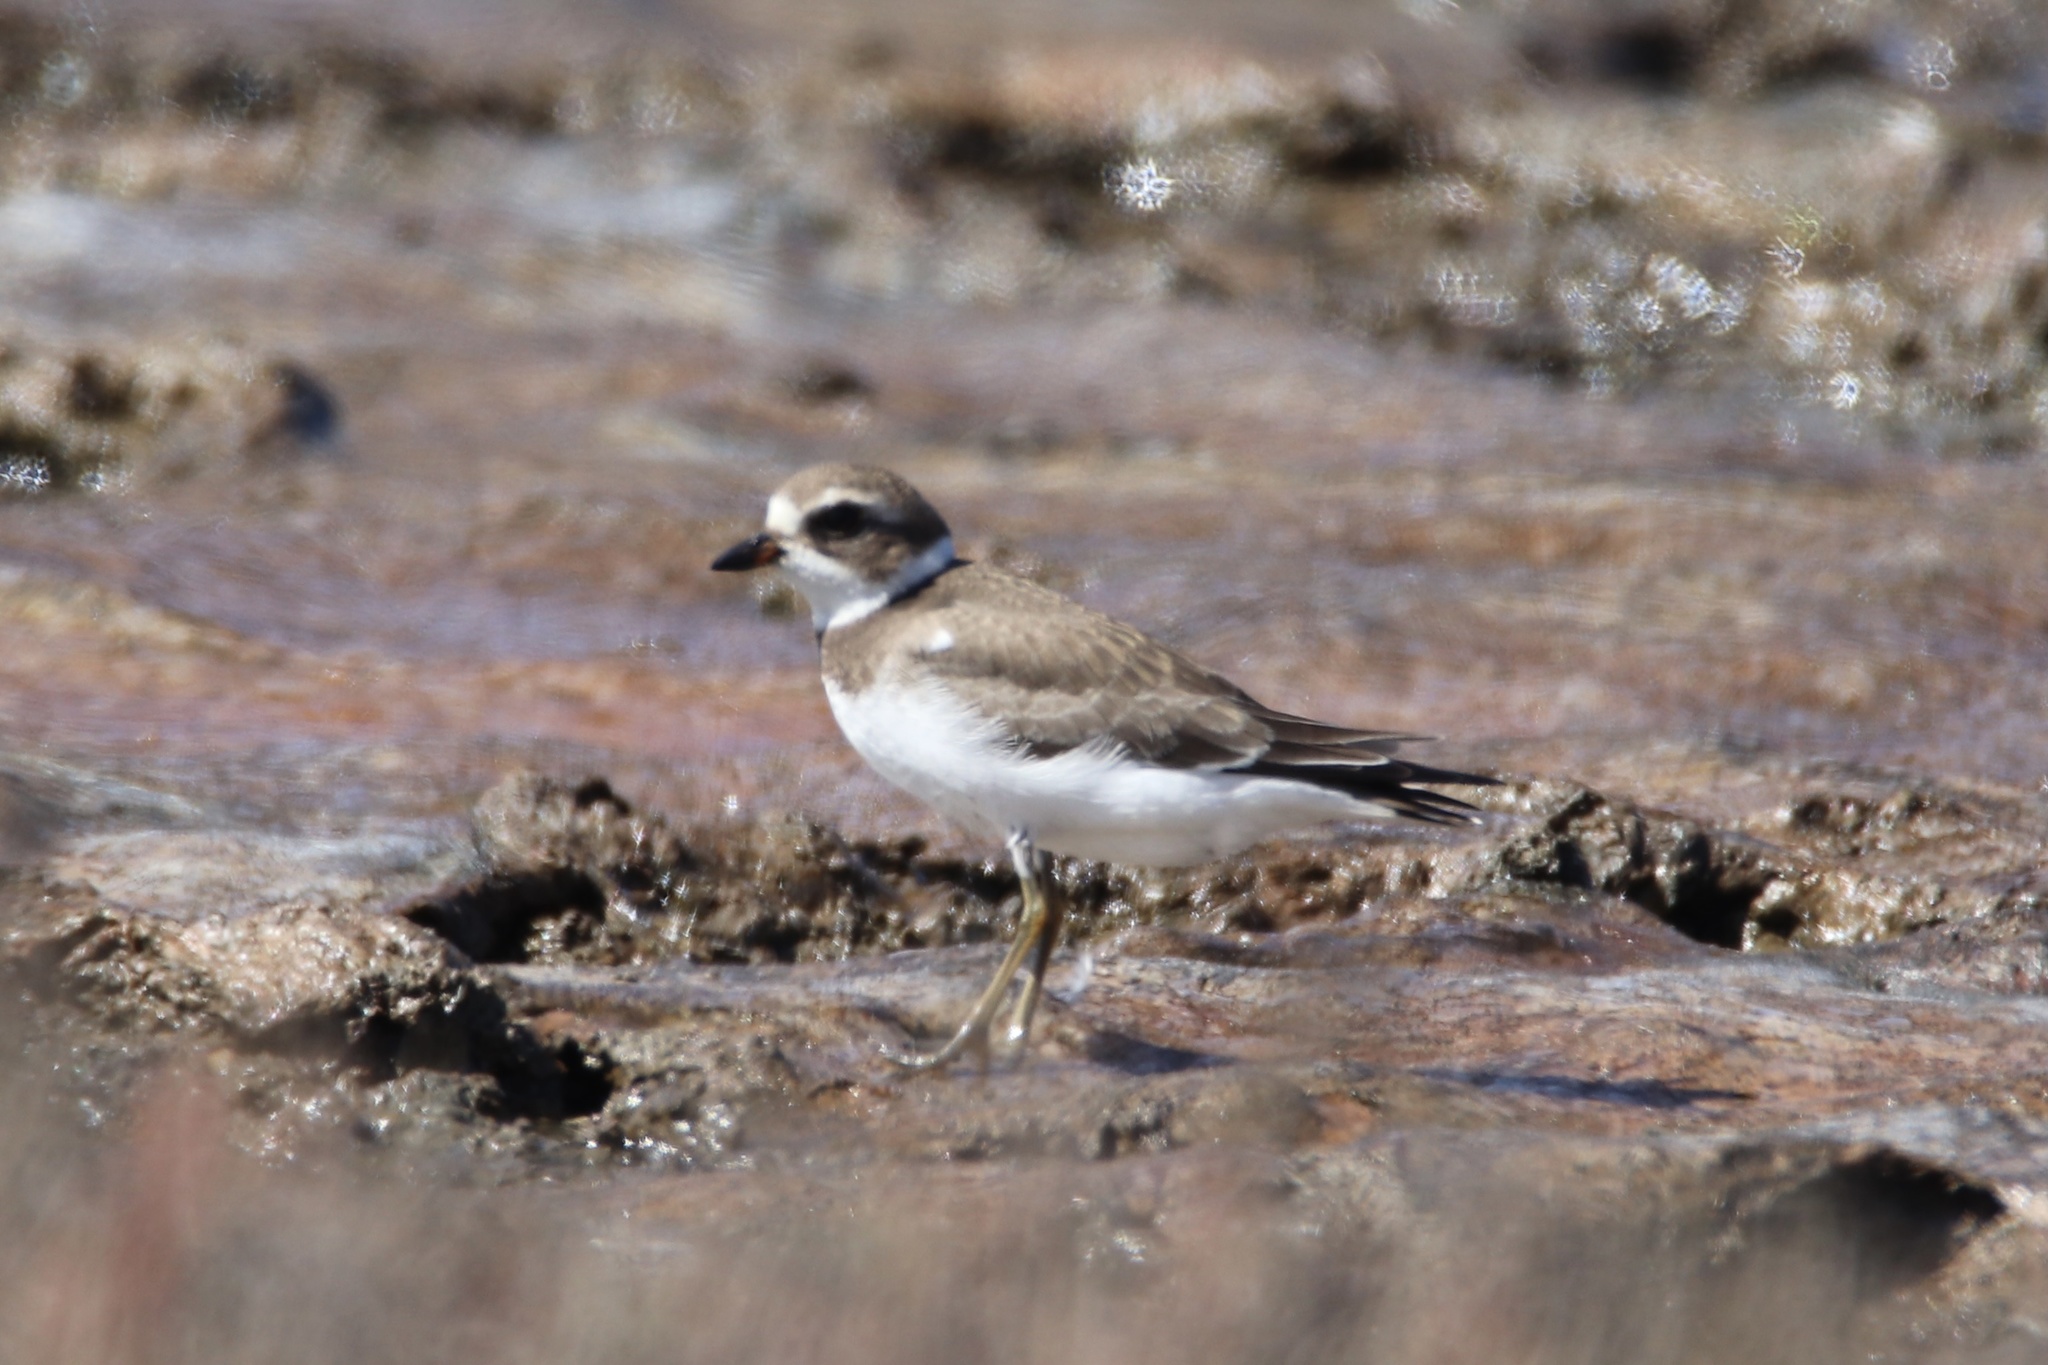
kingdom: Animalia
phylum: Chordata
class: Aves
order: Charadriiformes
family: Charadriidae
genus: Charadrius
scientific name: Charadrius semipalmatus
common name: Semipalmated plover
